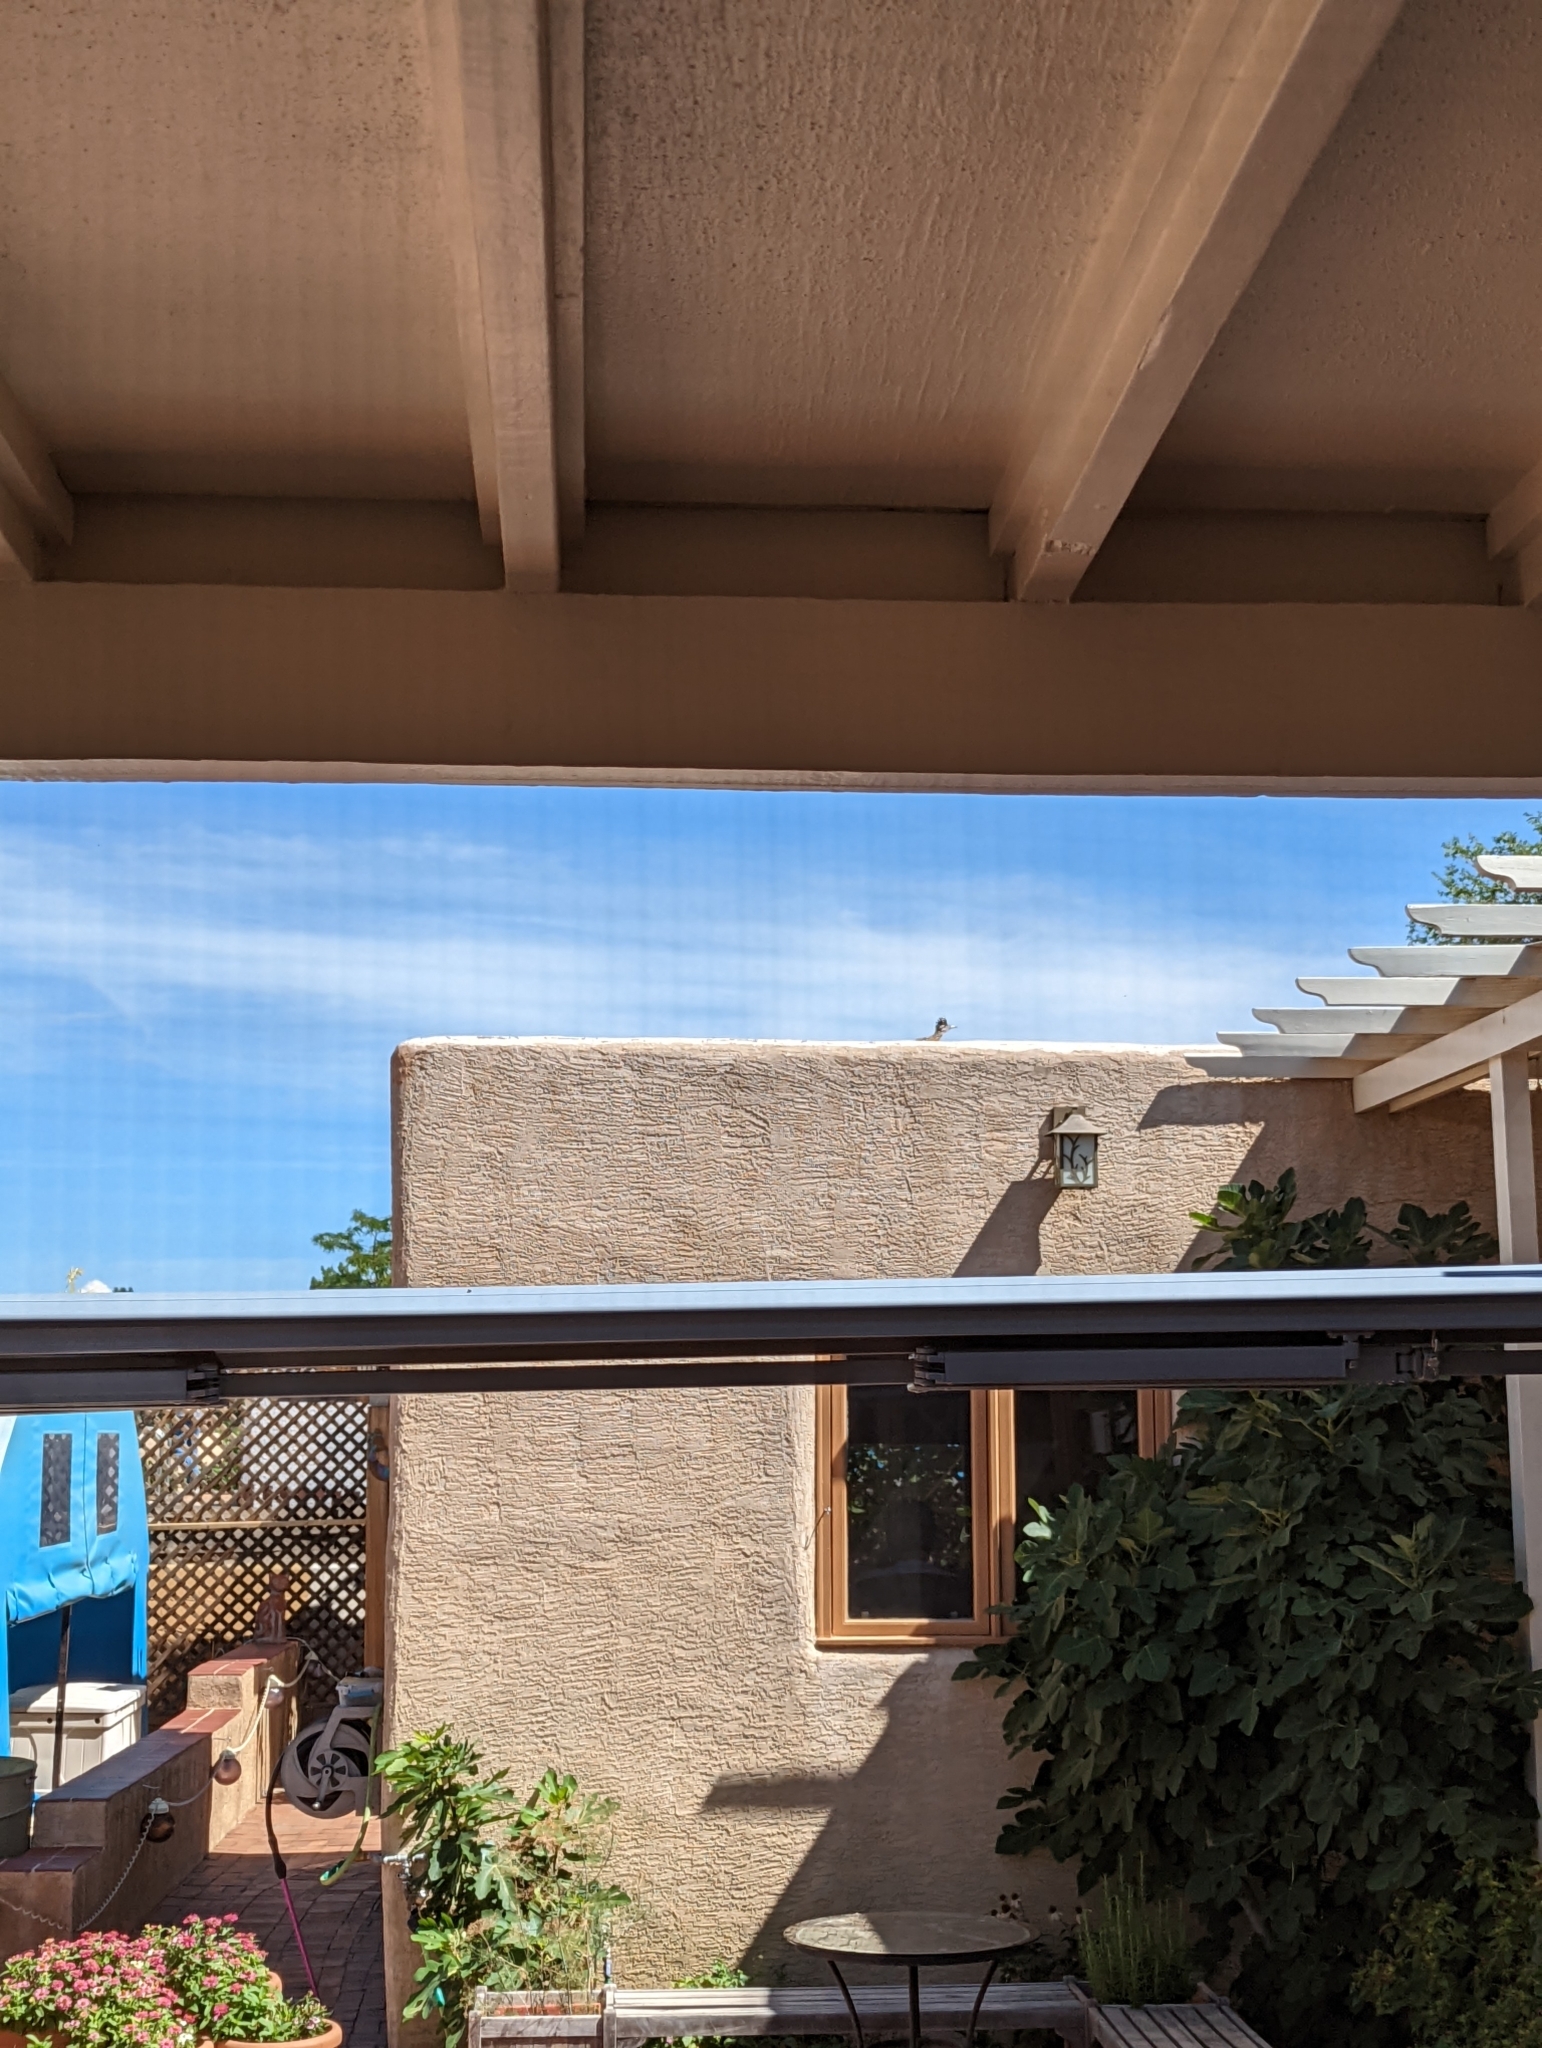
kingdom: Animalia
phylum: Chordata
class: Aves
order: Cuculiformes
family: Cuculidae
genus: Geococcyx
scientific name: Geococcyx californianus
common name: Greater roadrunner
